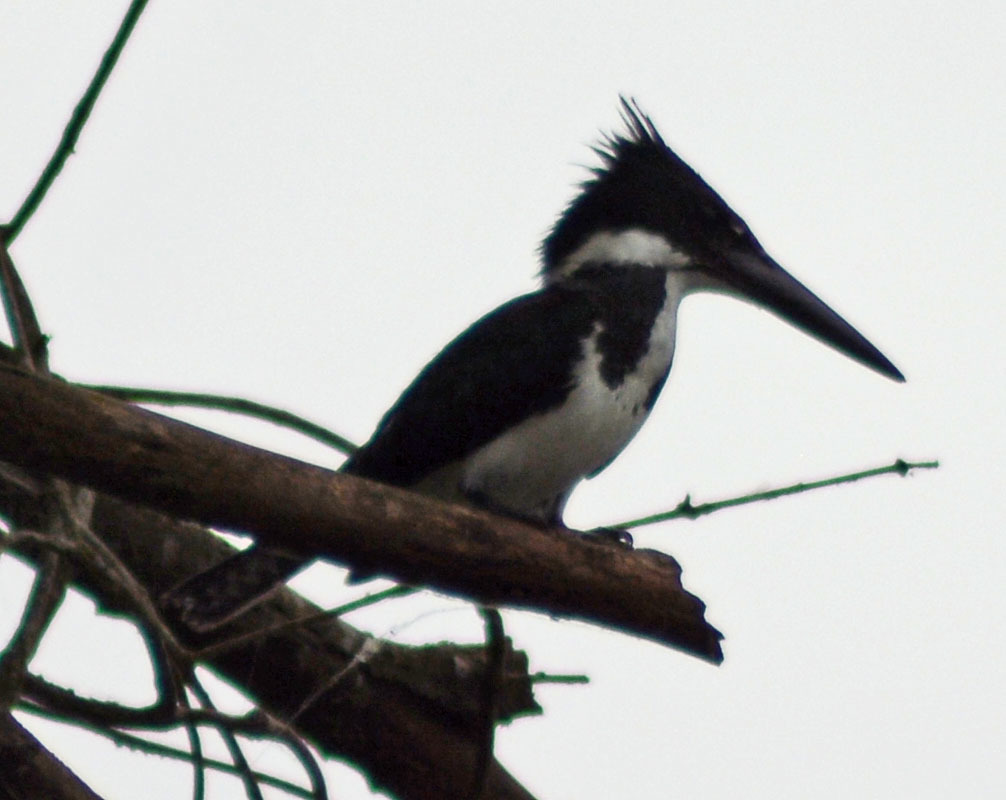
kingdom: Animalia
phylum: Chordata
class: Aves
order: Coraciiformes
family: Alcedinidae
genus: Chloroceryle
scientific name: Chloroceryle amazona
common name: Amazon kingfisher
